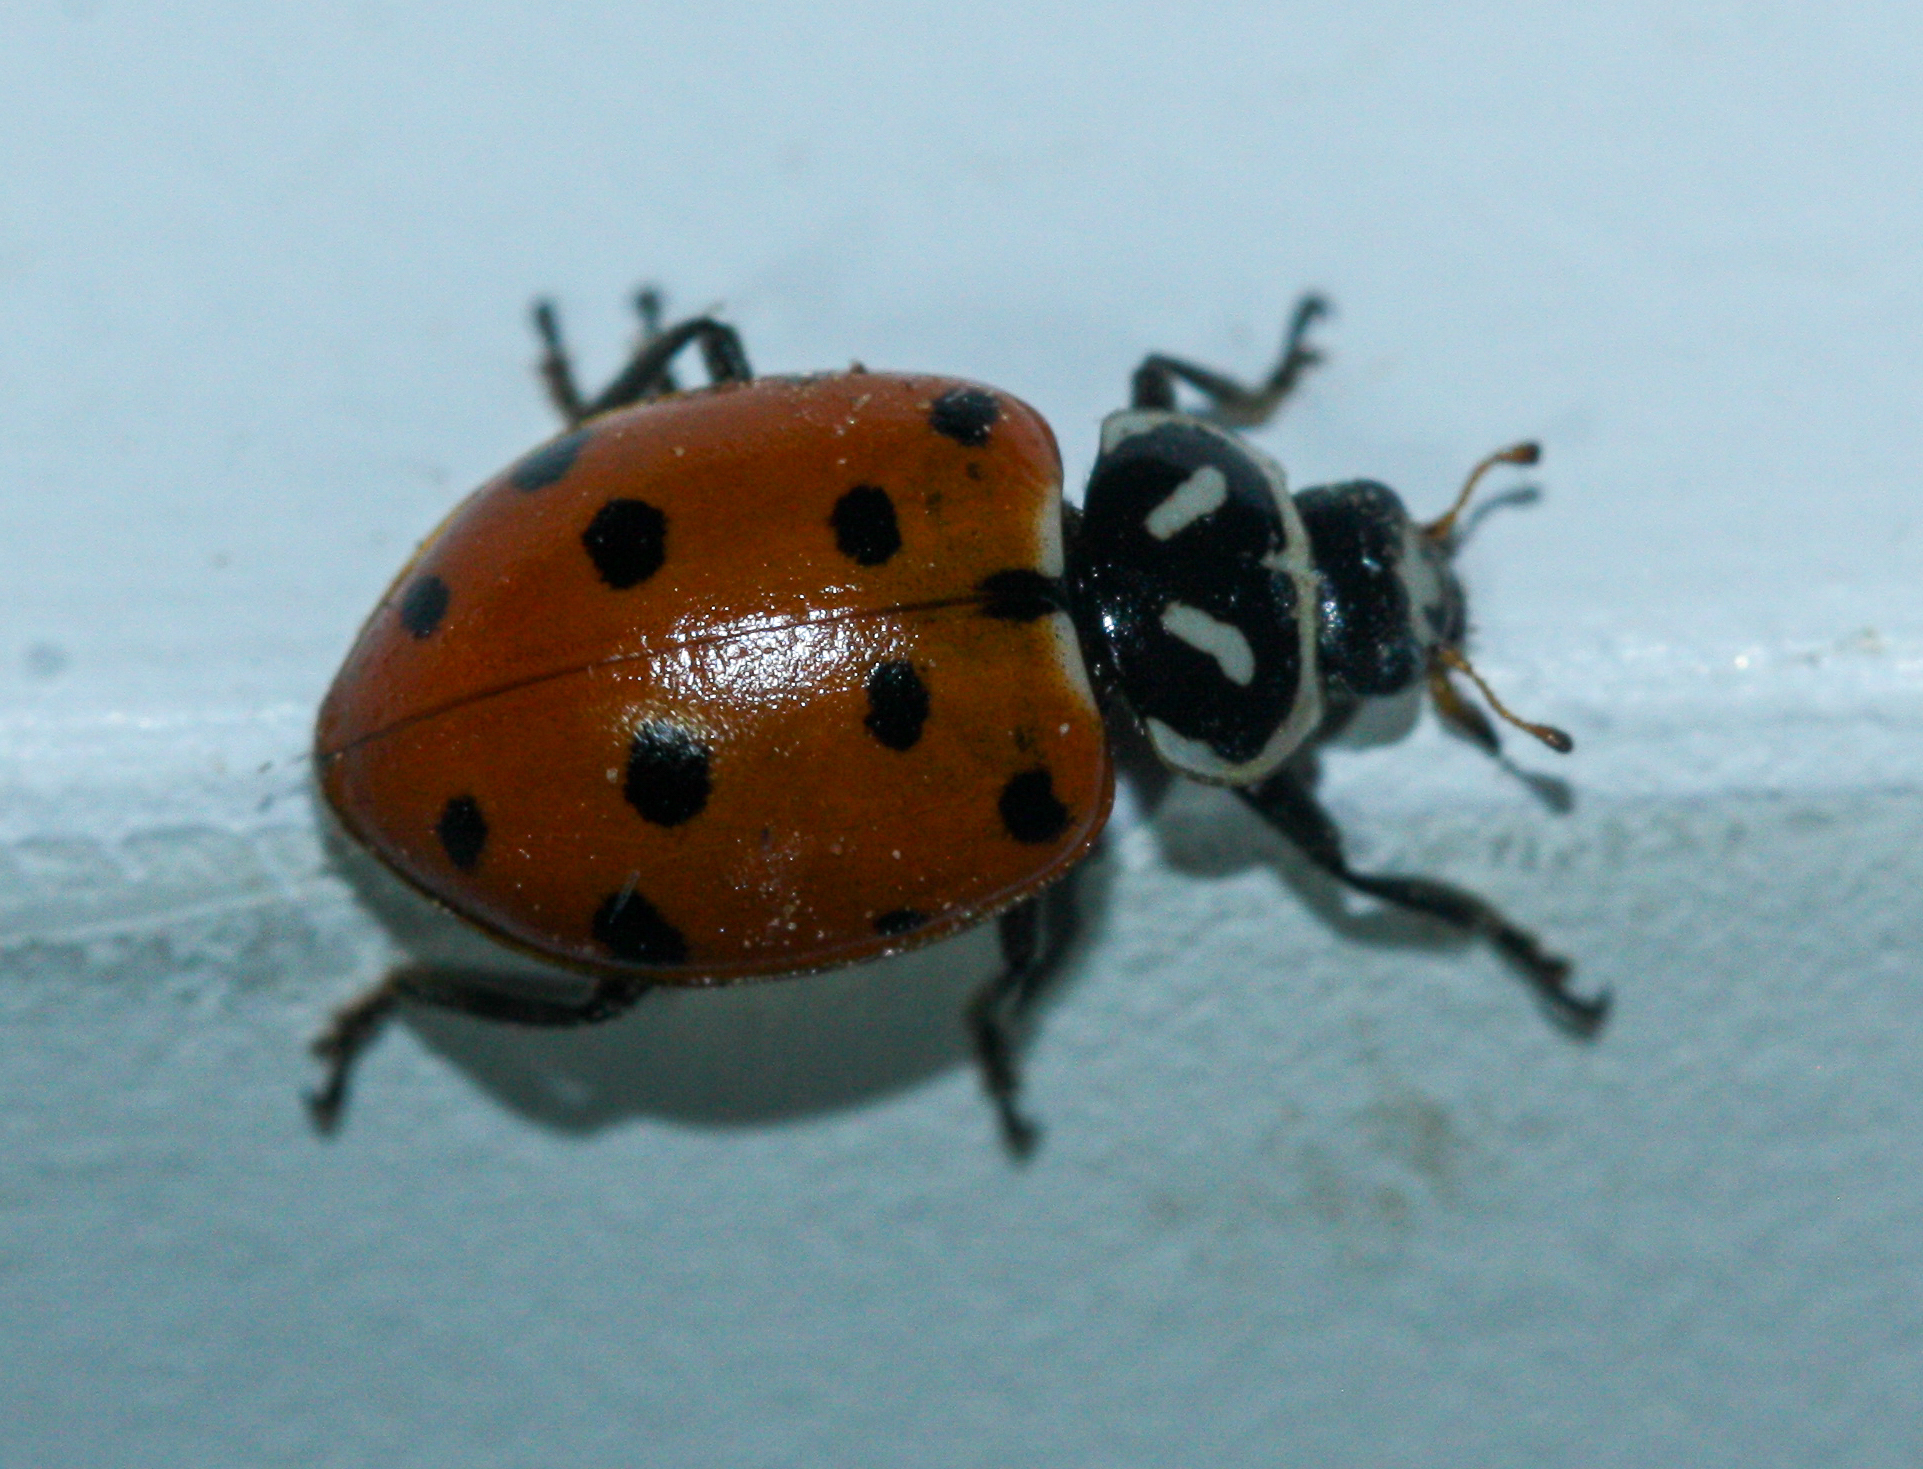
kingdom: Animalia
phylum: Arthropoda
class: Insecta
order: Coleoptera
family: Coccinellidae
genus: Hippodamia
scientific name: Hippodamia convergens
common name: Convergent lady beetle
